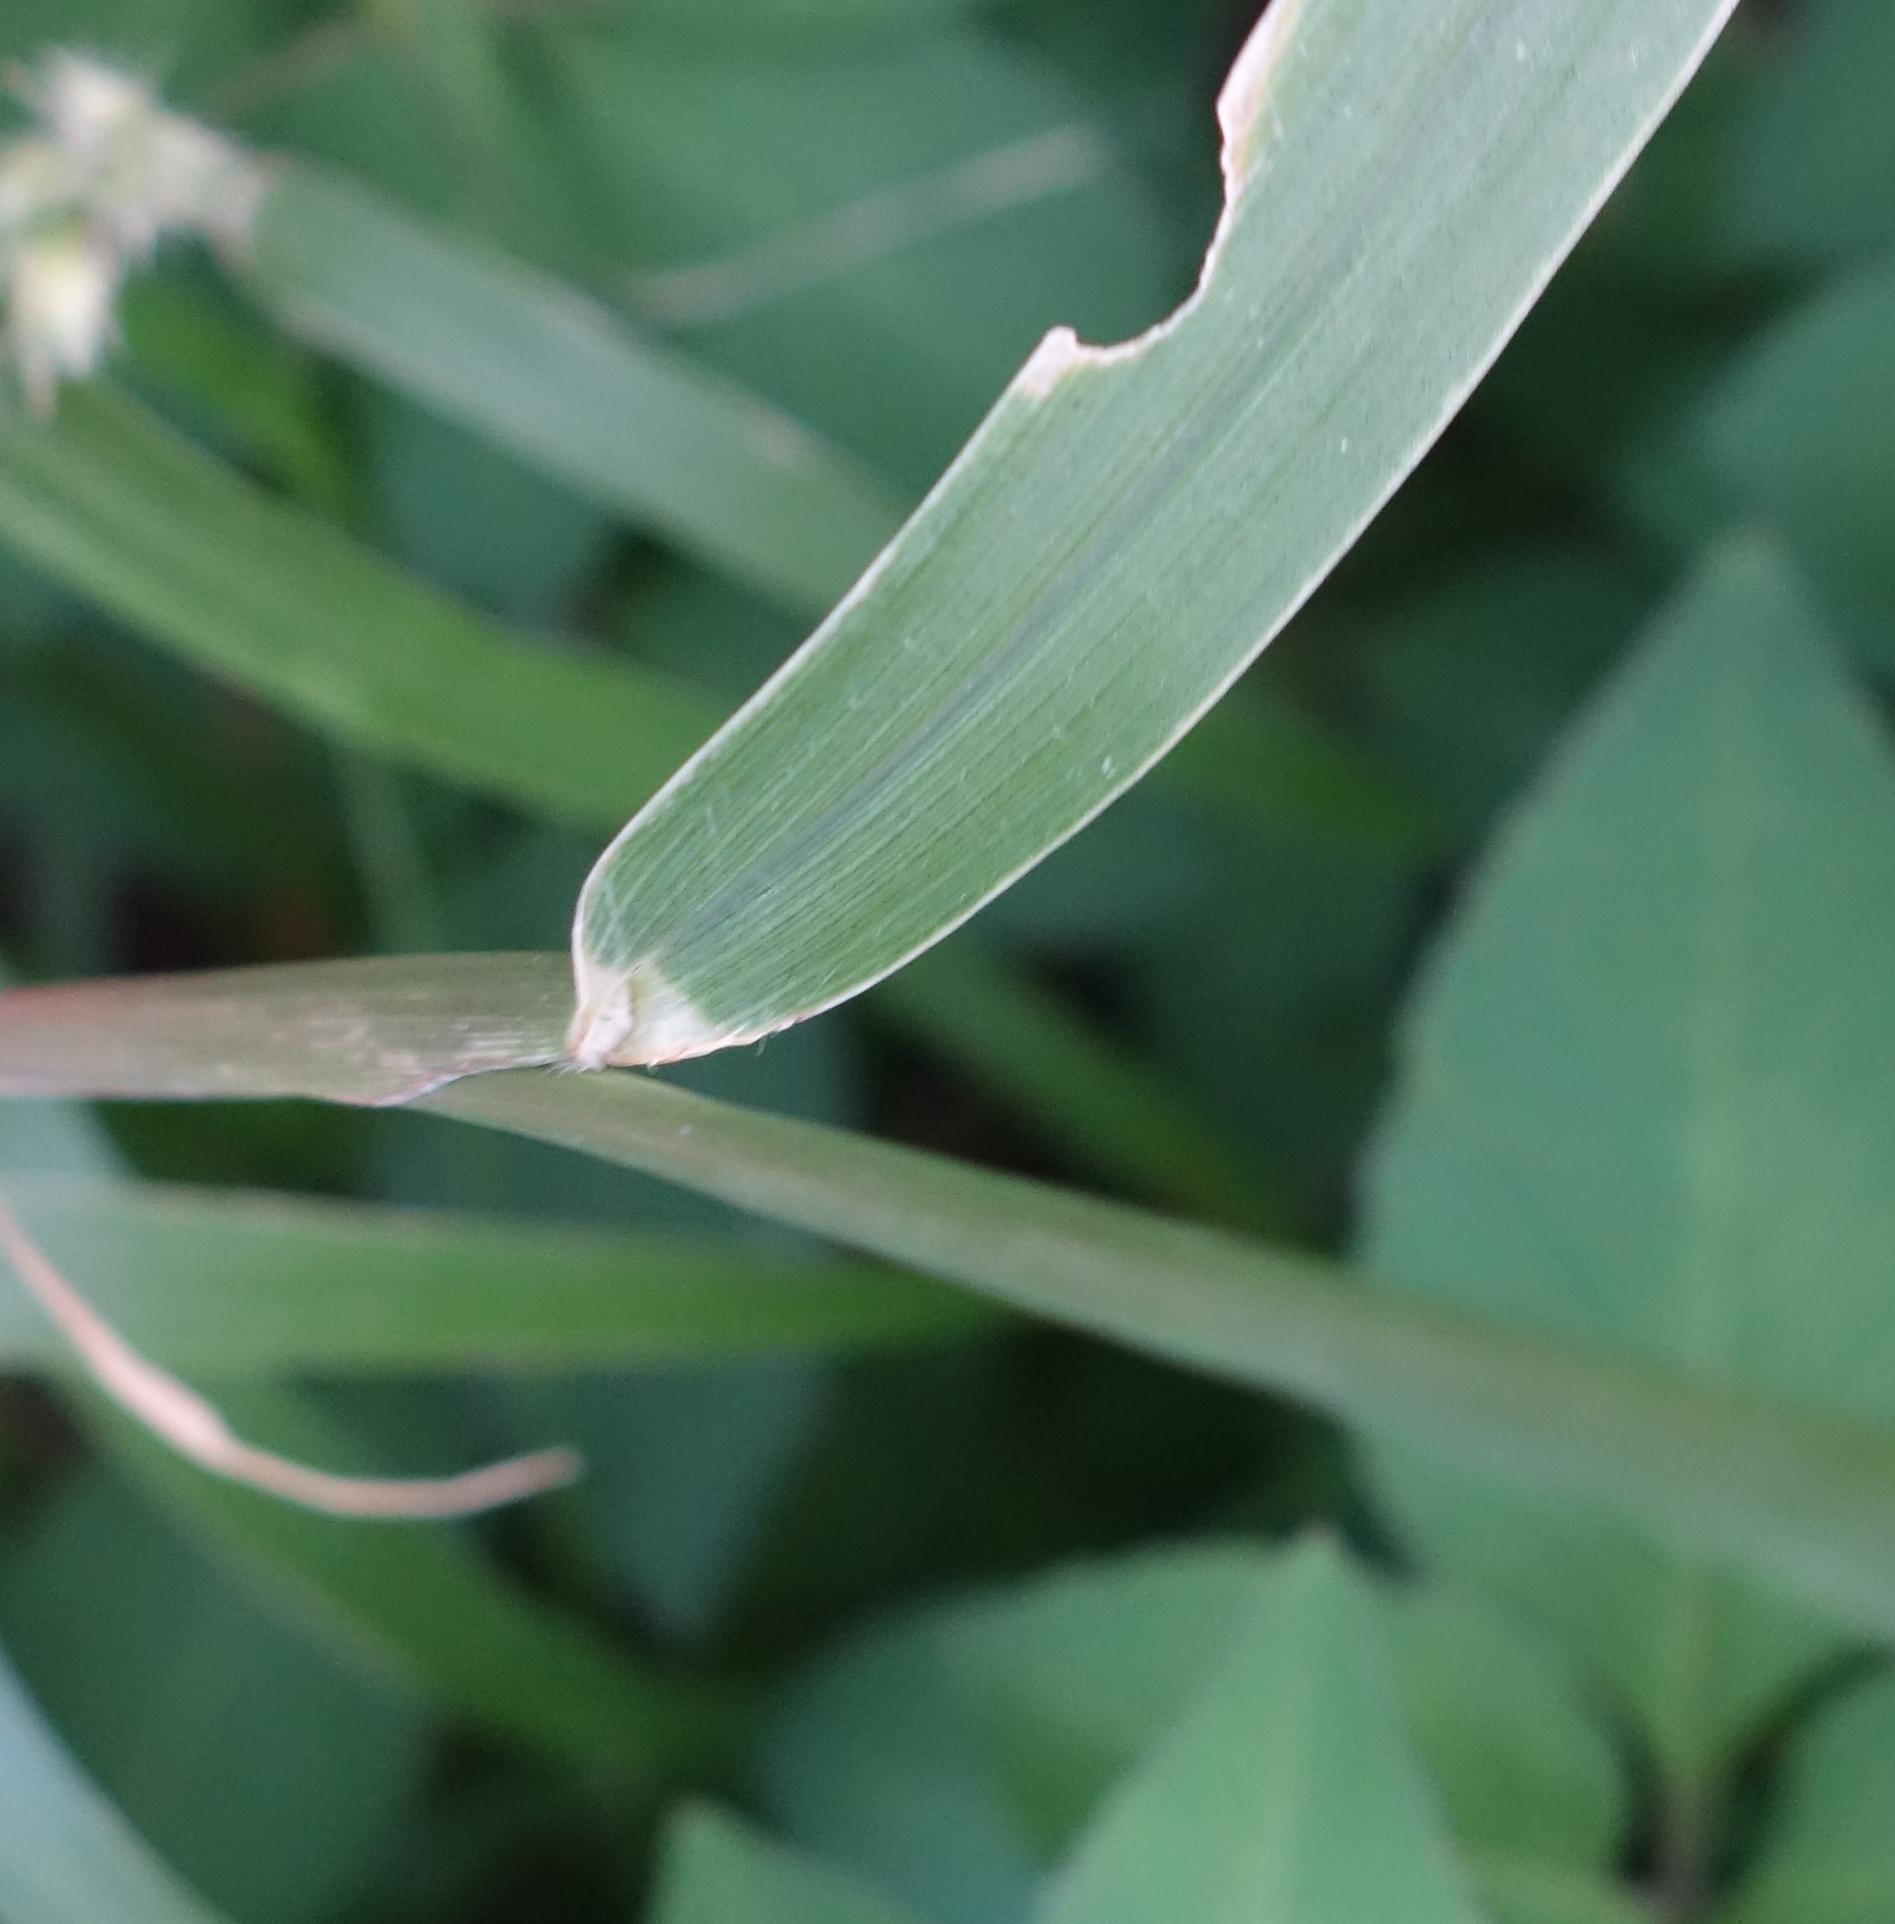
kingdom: Plantae
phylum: Tracheophyta
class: Liliopsida
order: Poales
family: Poaceae
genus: Cenchrus
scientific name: Cenchrus echinatus
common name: Southern sandbur
